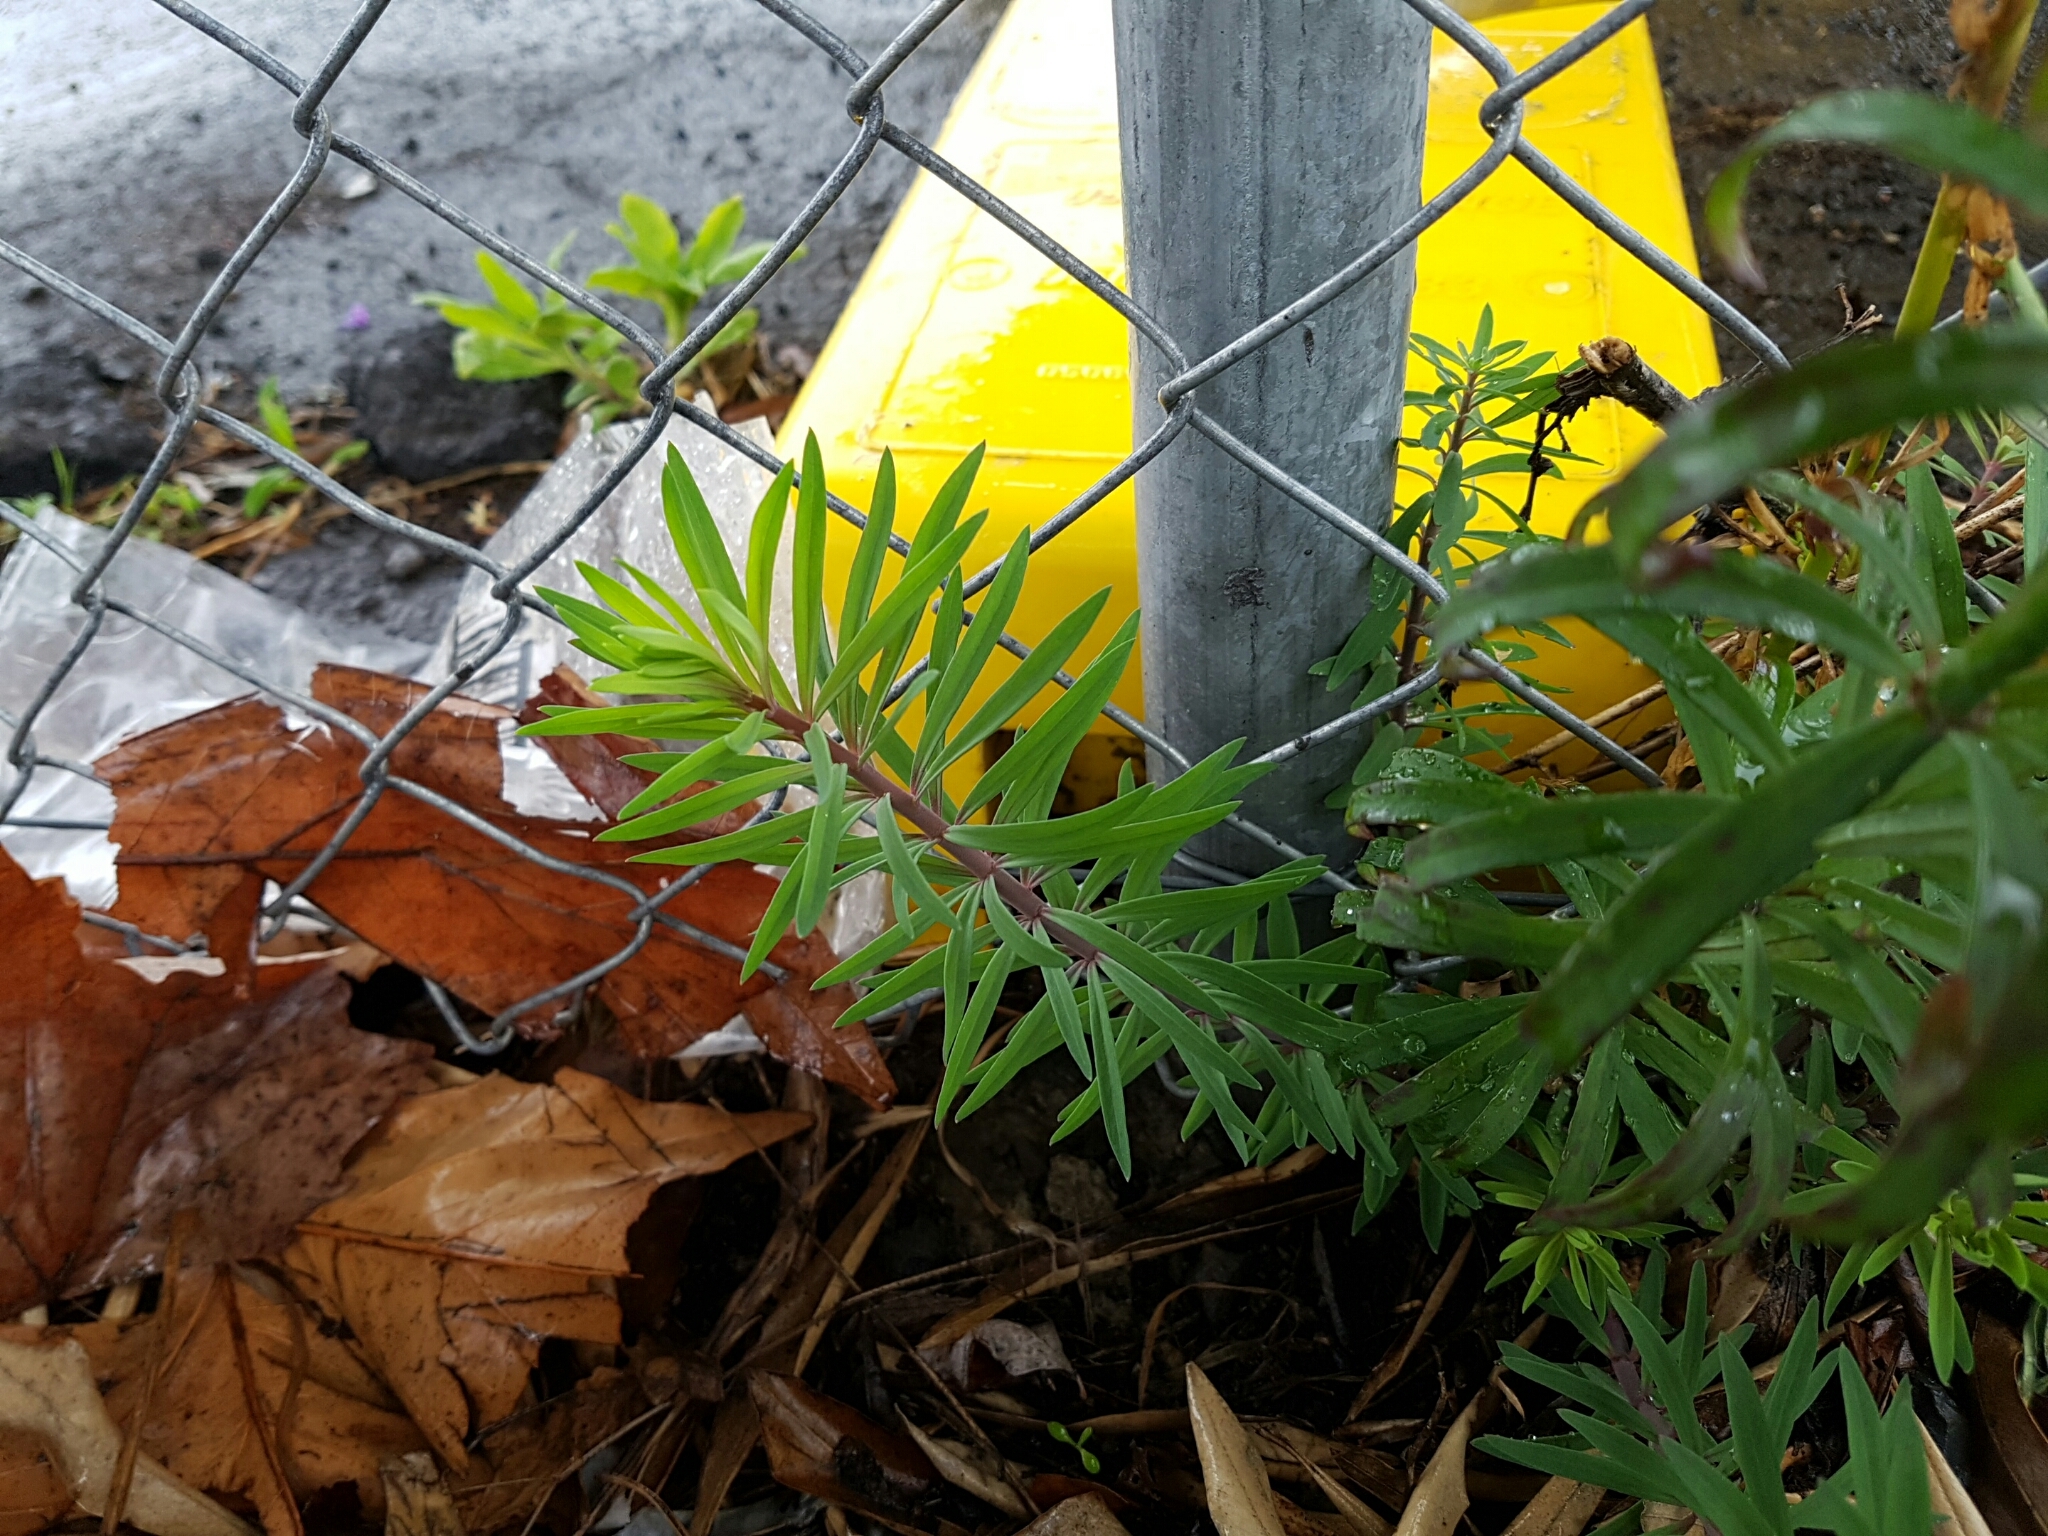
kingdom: Plantae
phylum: Tracheophyta
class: Magnoliopsida
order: Lamiales
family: Plantaginaceae
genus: Linaria
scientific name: Linaria purpurea
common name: Purple toadflax
